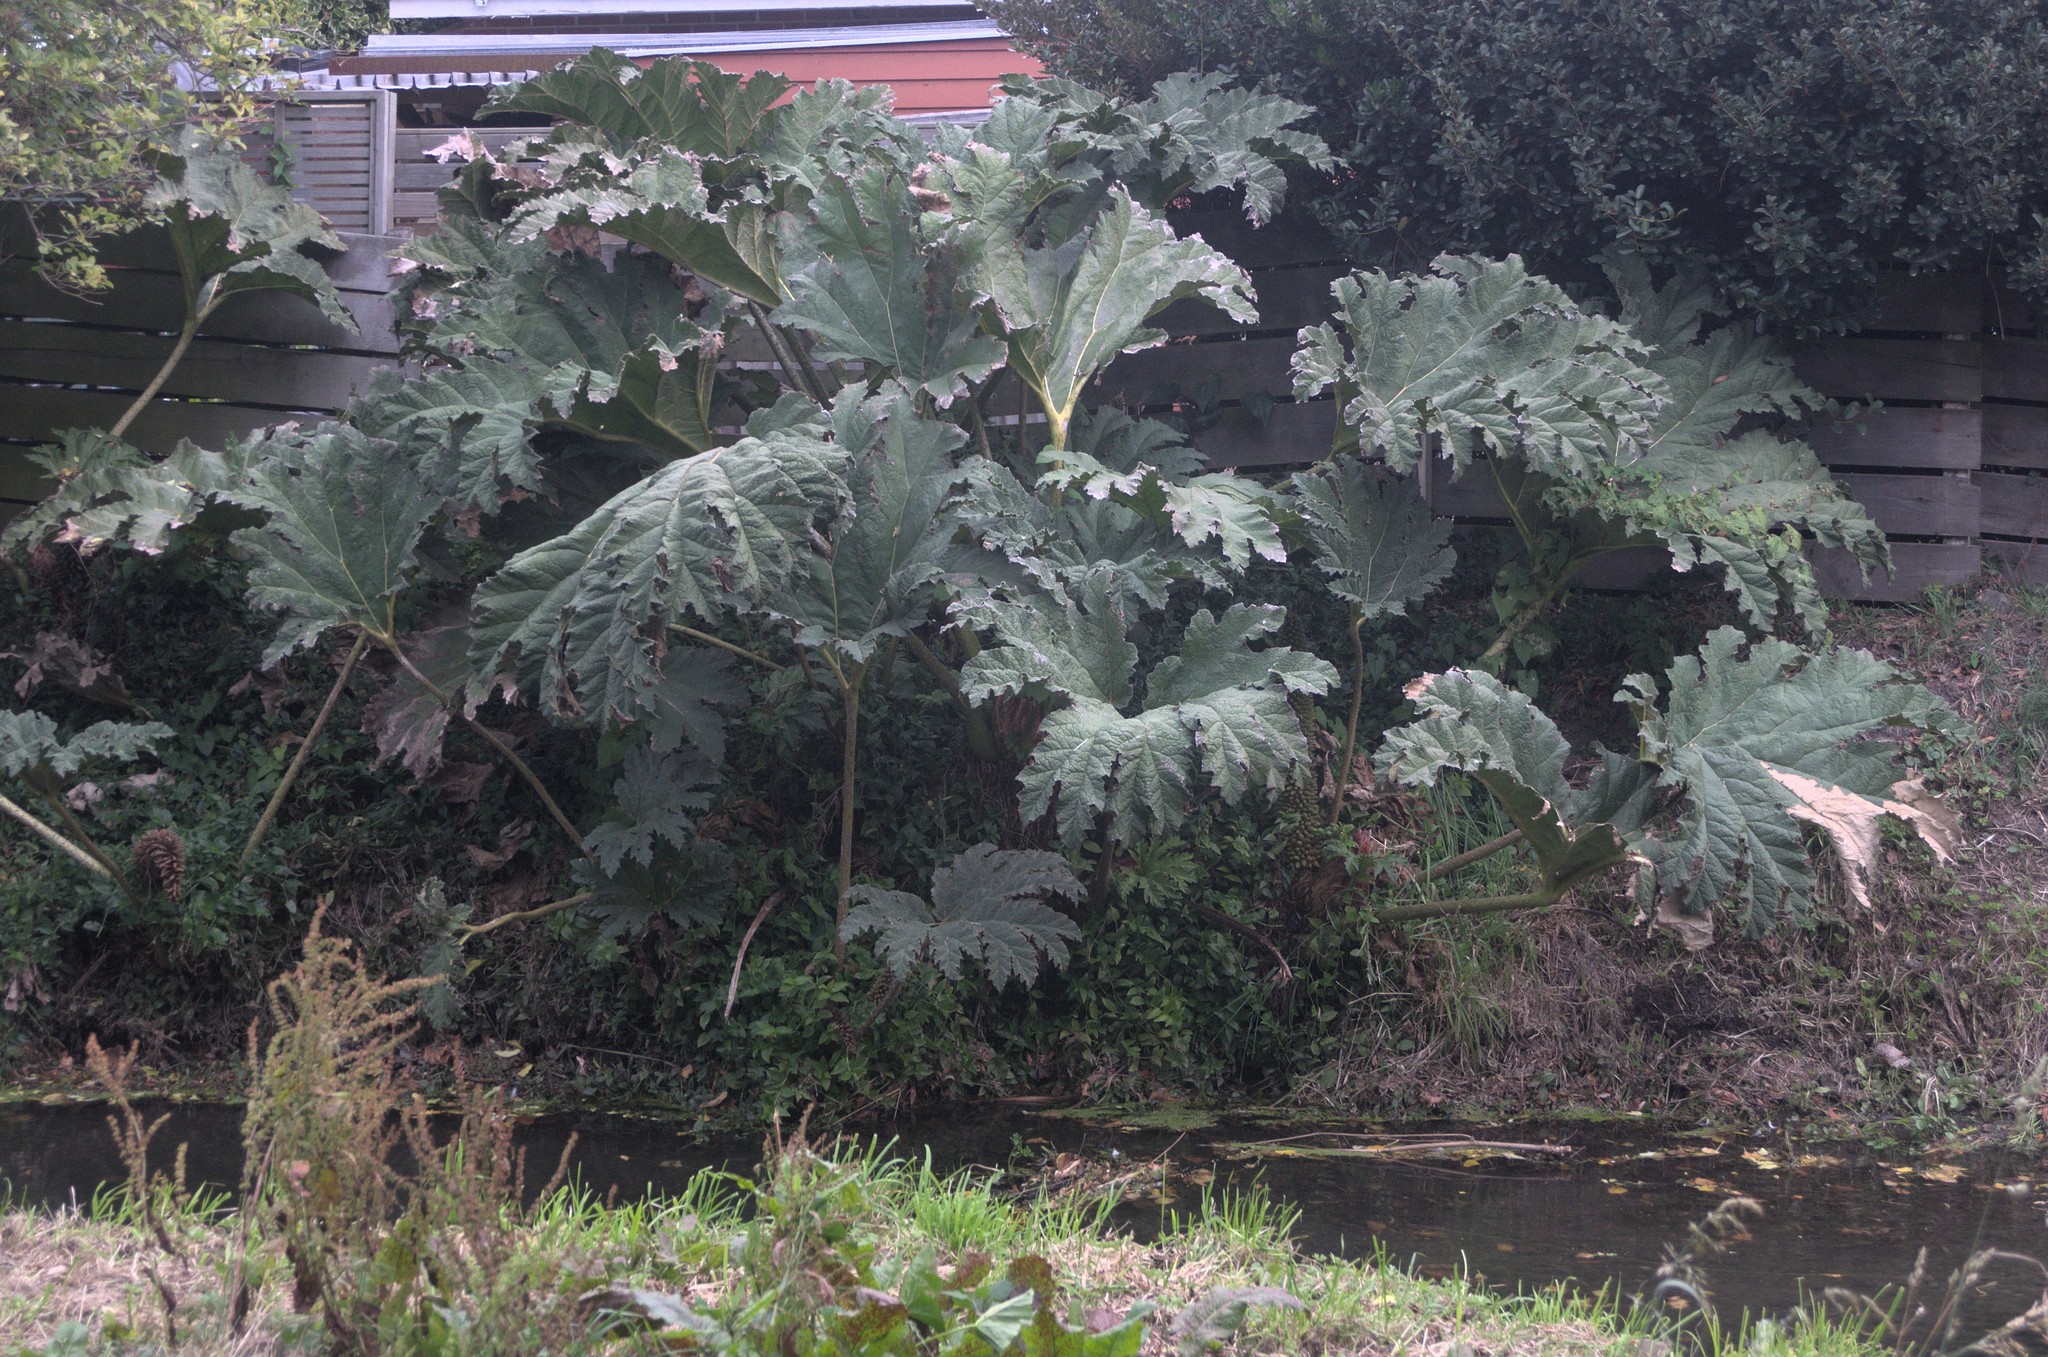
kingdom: Plantae
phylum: Tracheophyta
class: Magnoliopsida
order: Gunnerales
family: Gunneraceae
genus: Gunnera
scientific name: Gunnera tinctoria
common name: Giant-rhubarb
